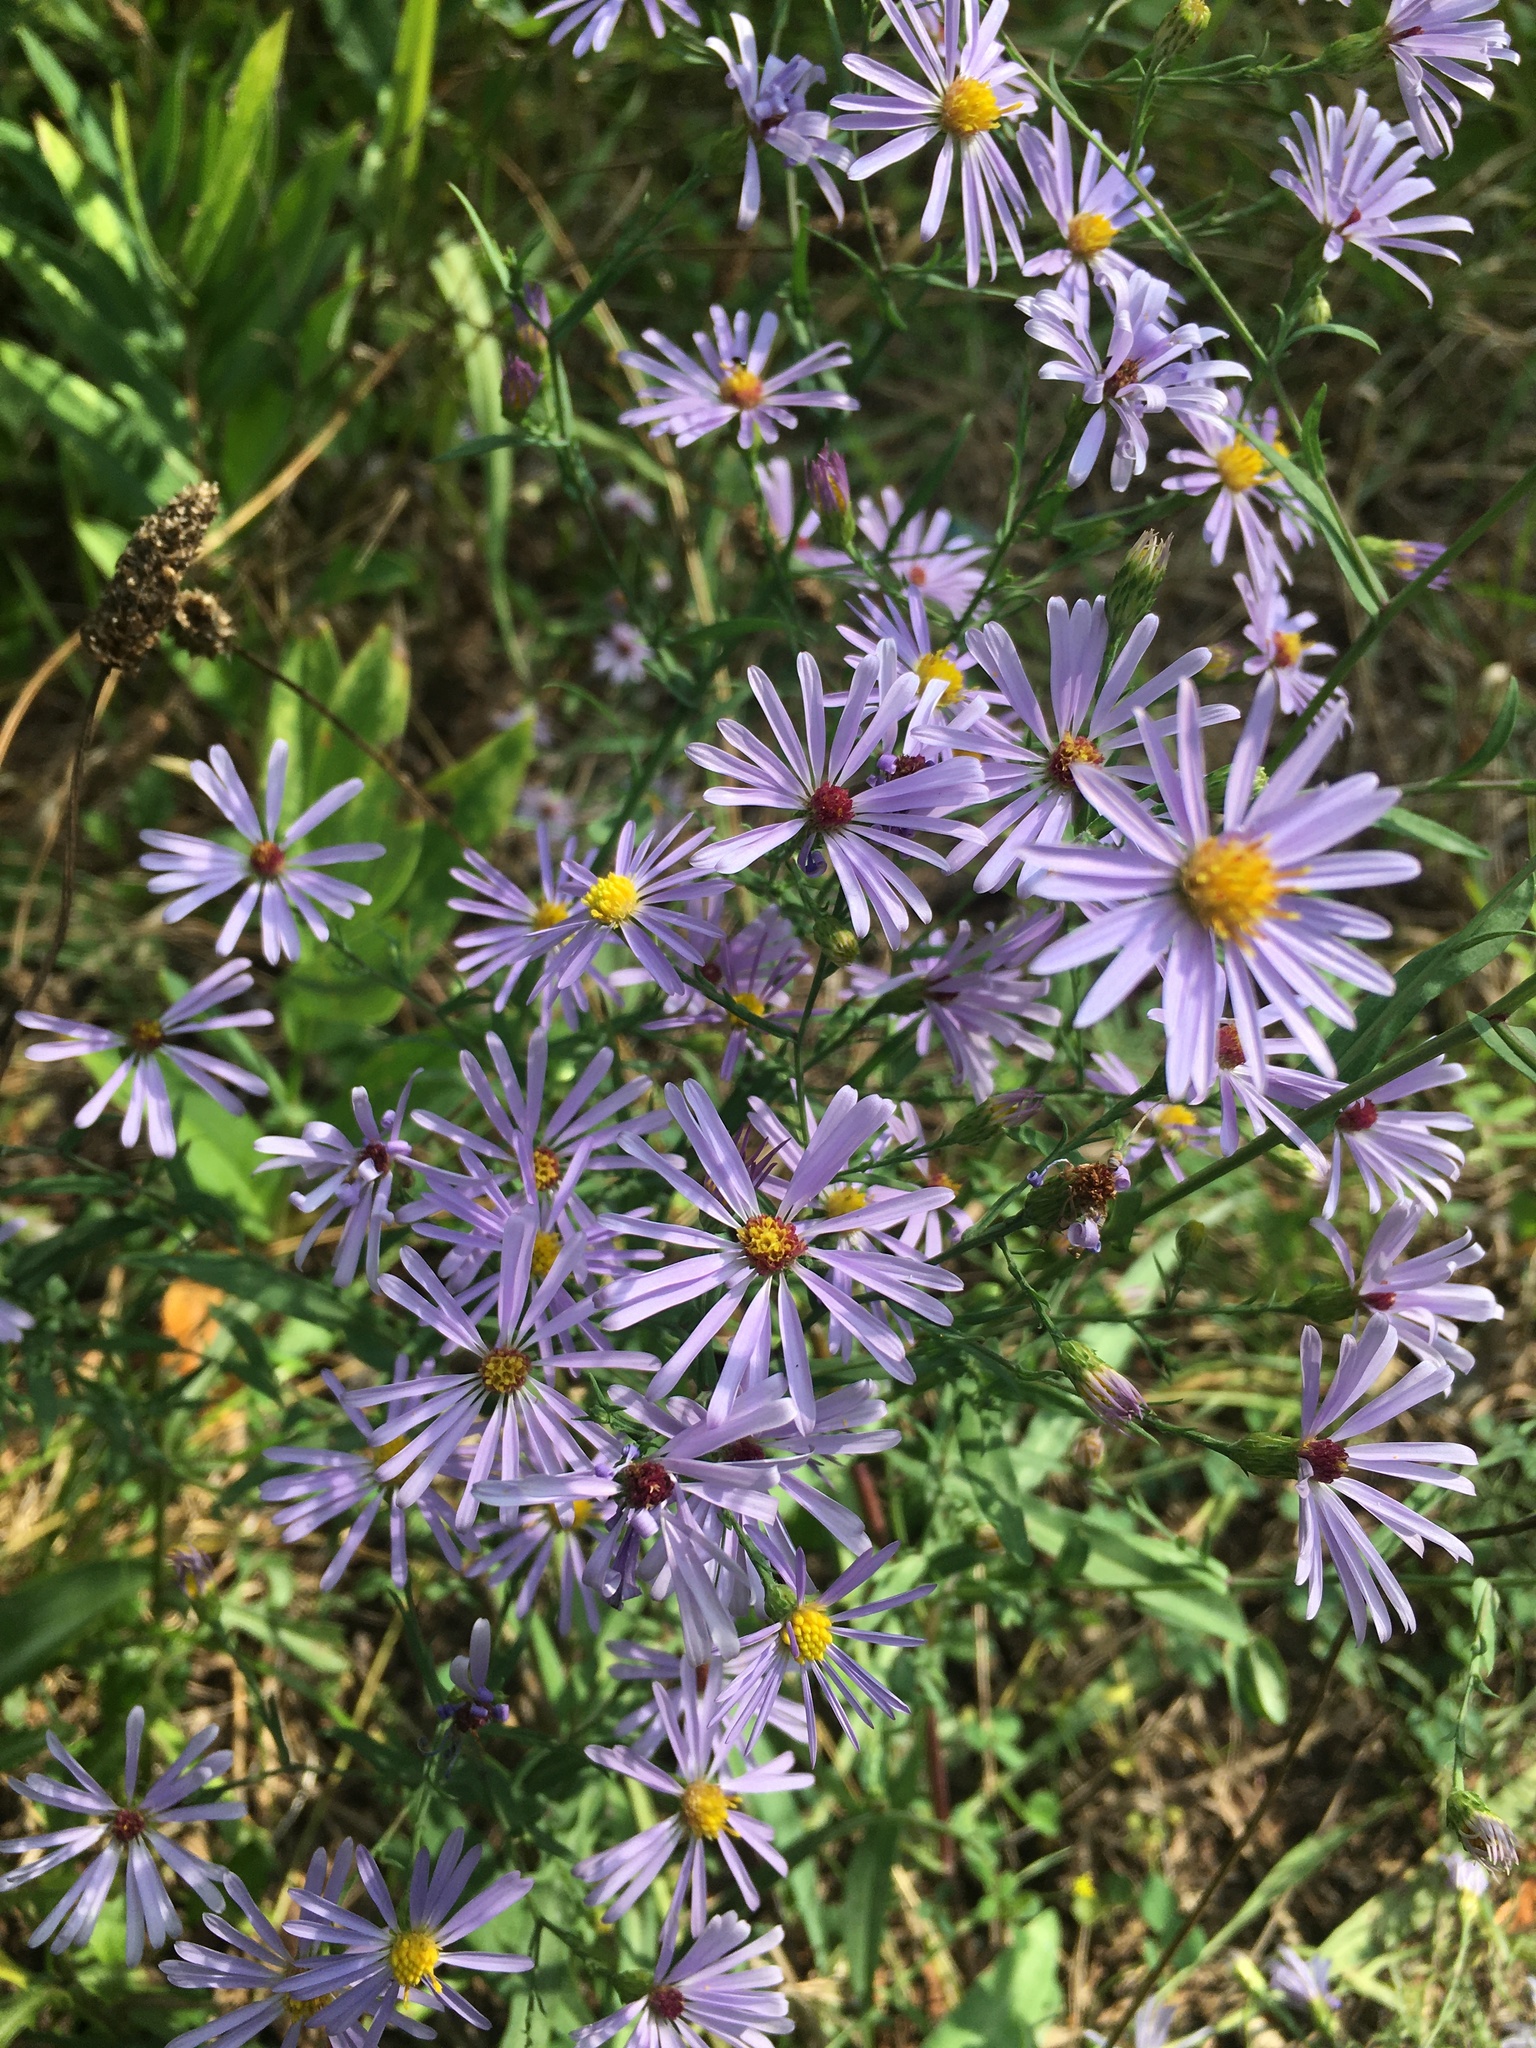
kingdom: Plantae
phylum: Tracheophyta
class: Magnoliopsida
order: Asterales
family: Asteraceae
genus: Symphyotrichum
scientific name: Symphyotrichum laeve
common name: Glaucous aster
